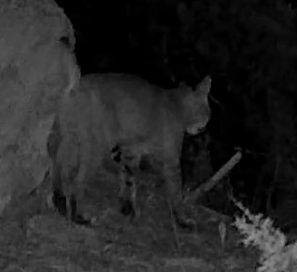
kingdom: Animalia
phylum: Chordata
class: Mammalia
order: Carnivora
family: Felidae
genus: Lynx
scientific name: Lynx rufus
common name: Bobcat
